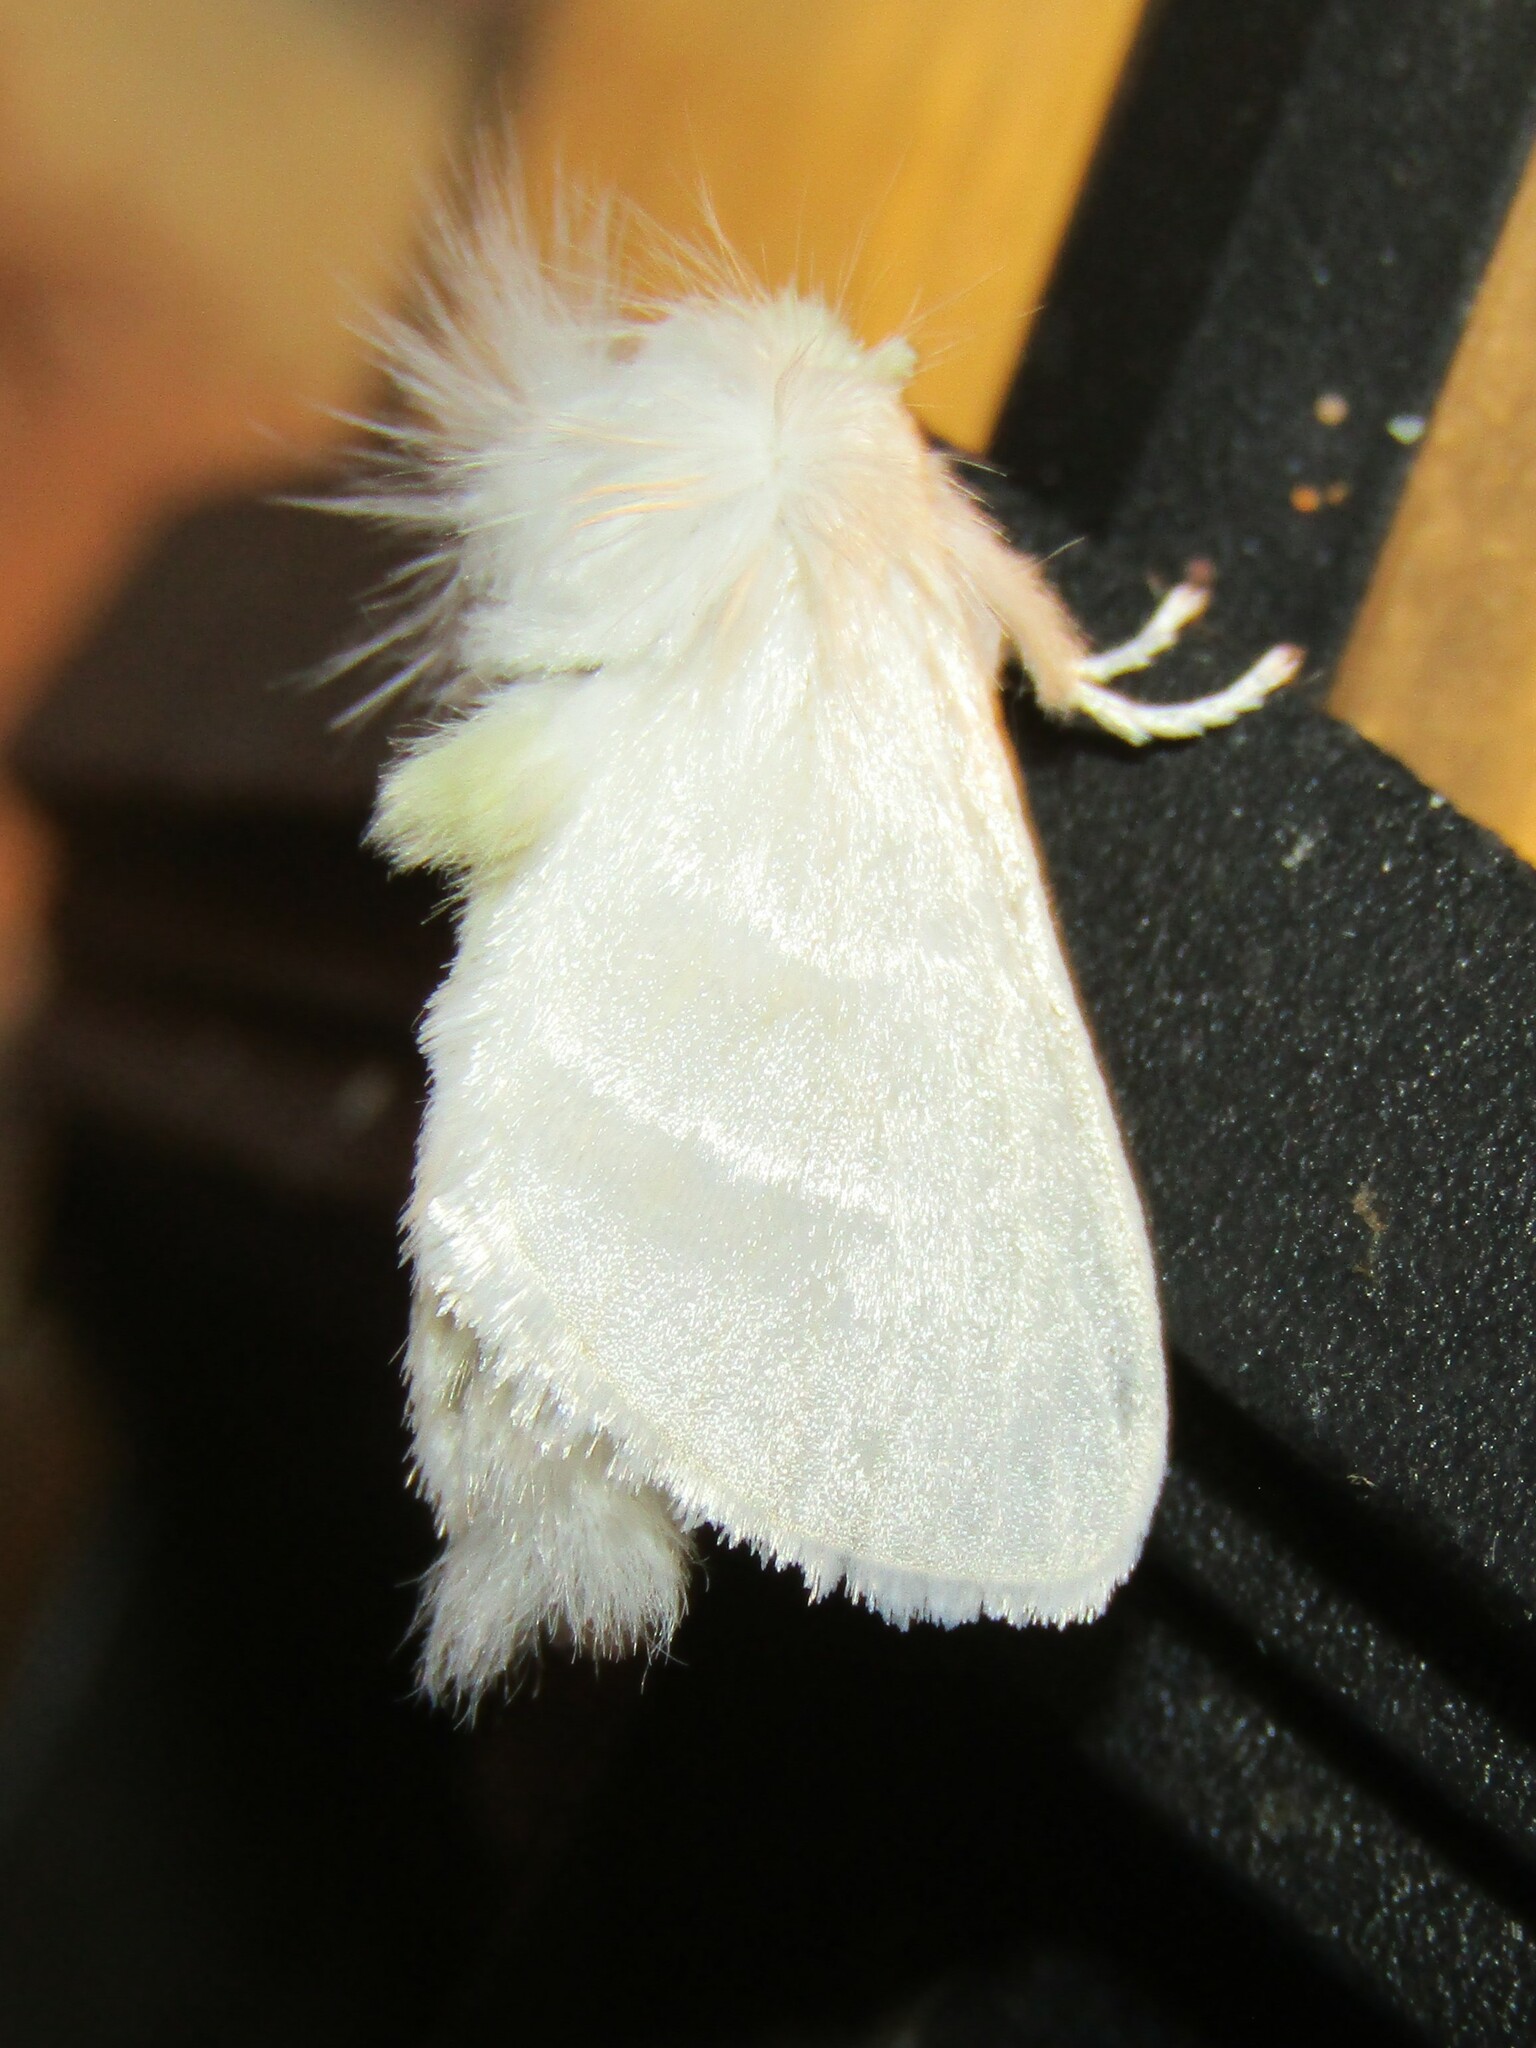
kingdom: Animalia
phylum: Arthropoda
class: Insecta
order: Lepidoptera
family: Megalopygidae
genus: Norape
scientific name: Norape cretata
